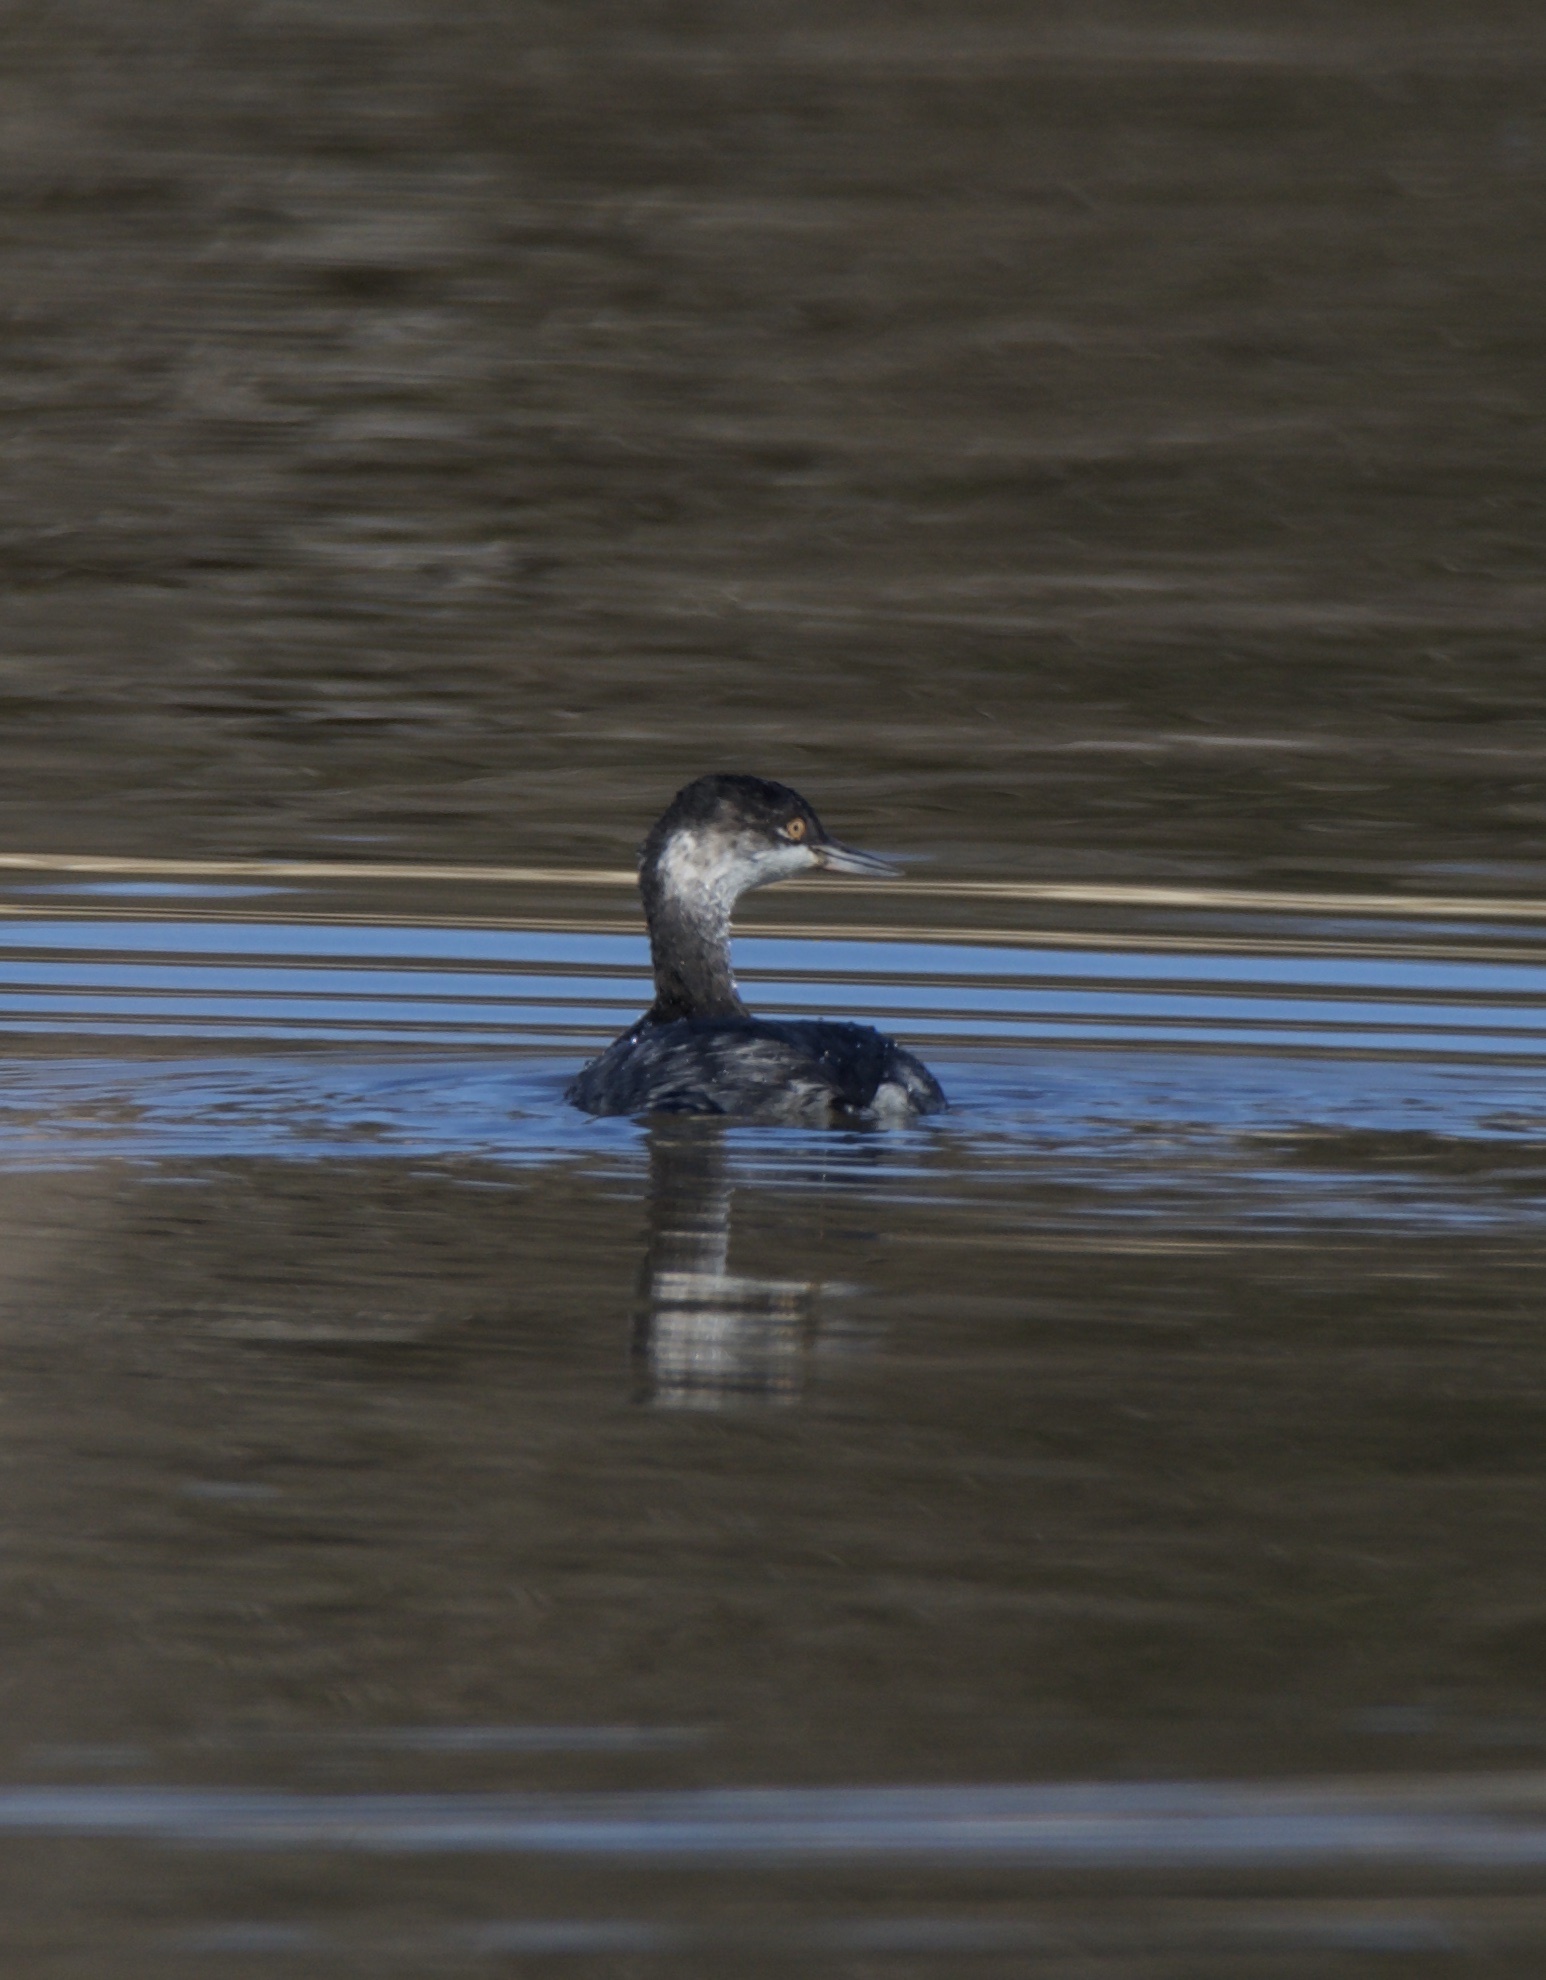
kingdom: Animalia
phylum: Chordata
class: Aves
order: Podicipediformes
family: Podicipedidae
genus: Podiceps
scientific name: Podiceps nigricollis
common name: Black-necked grebe
